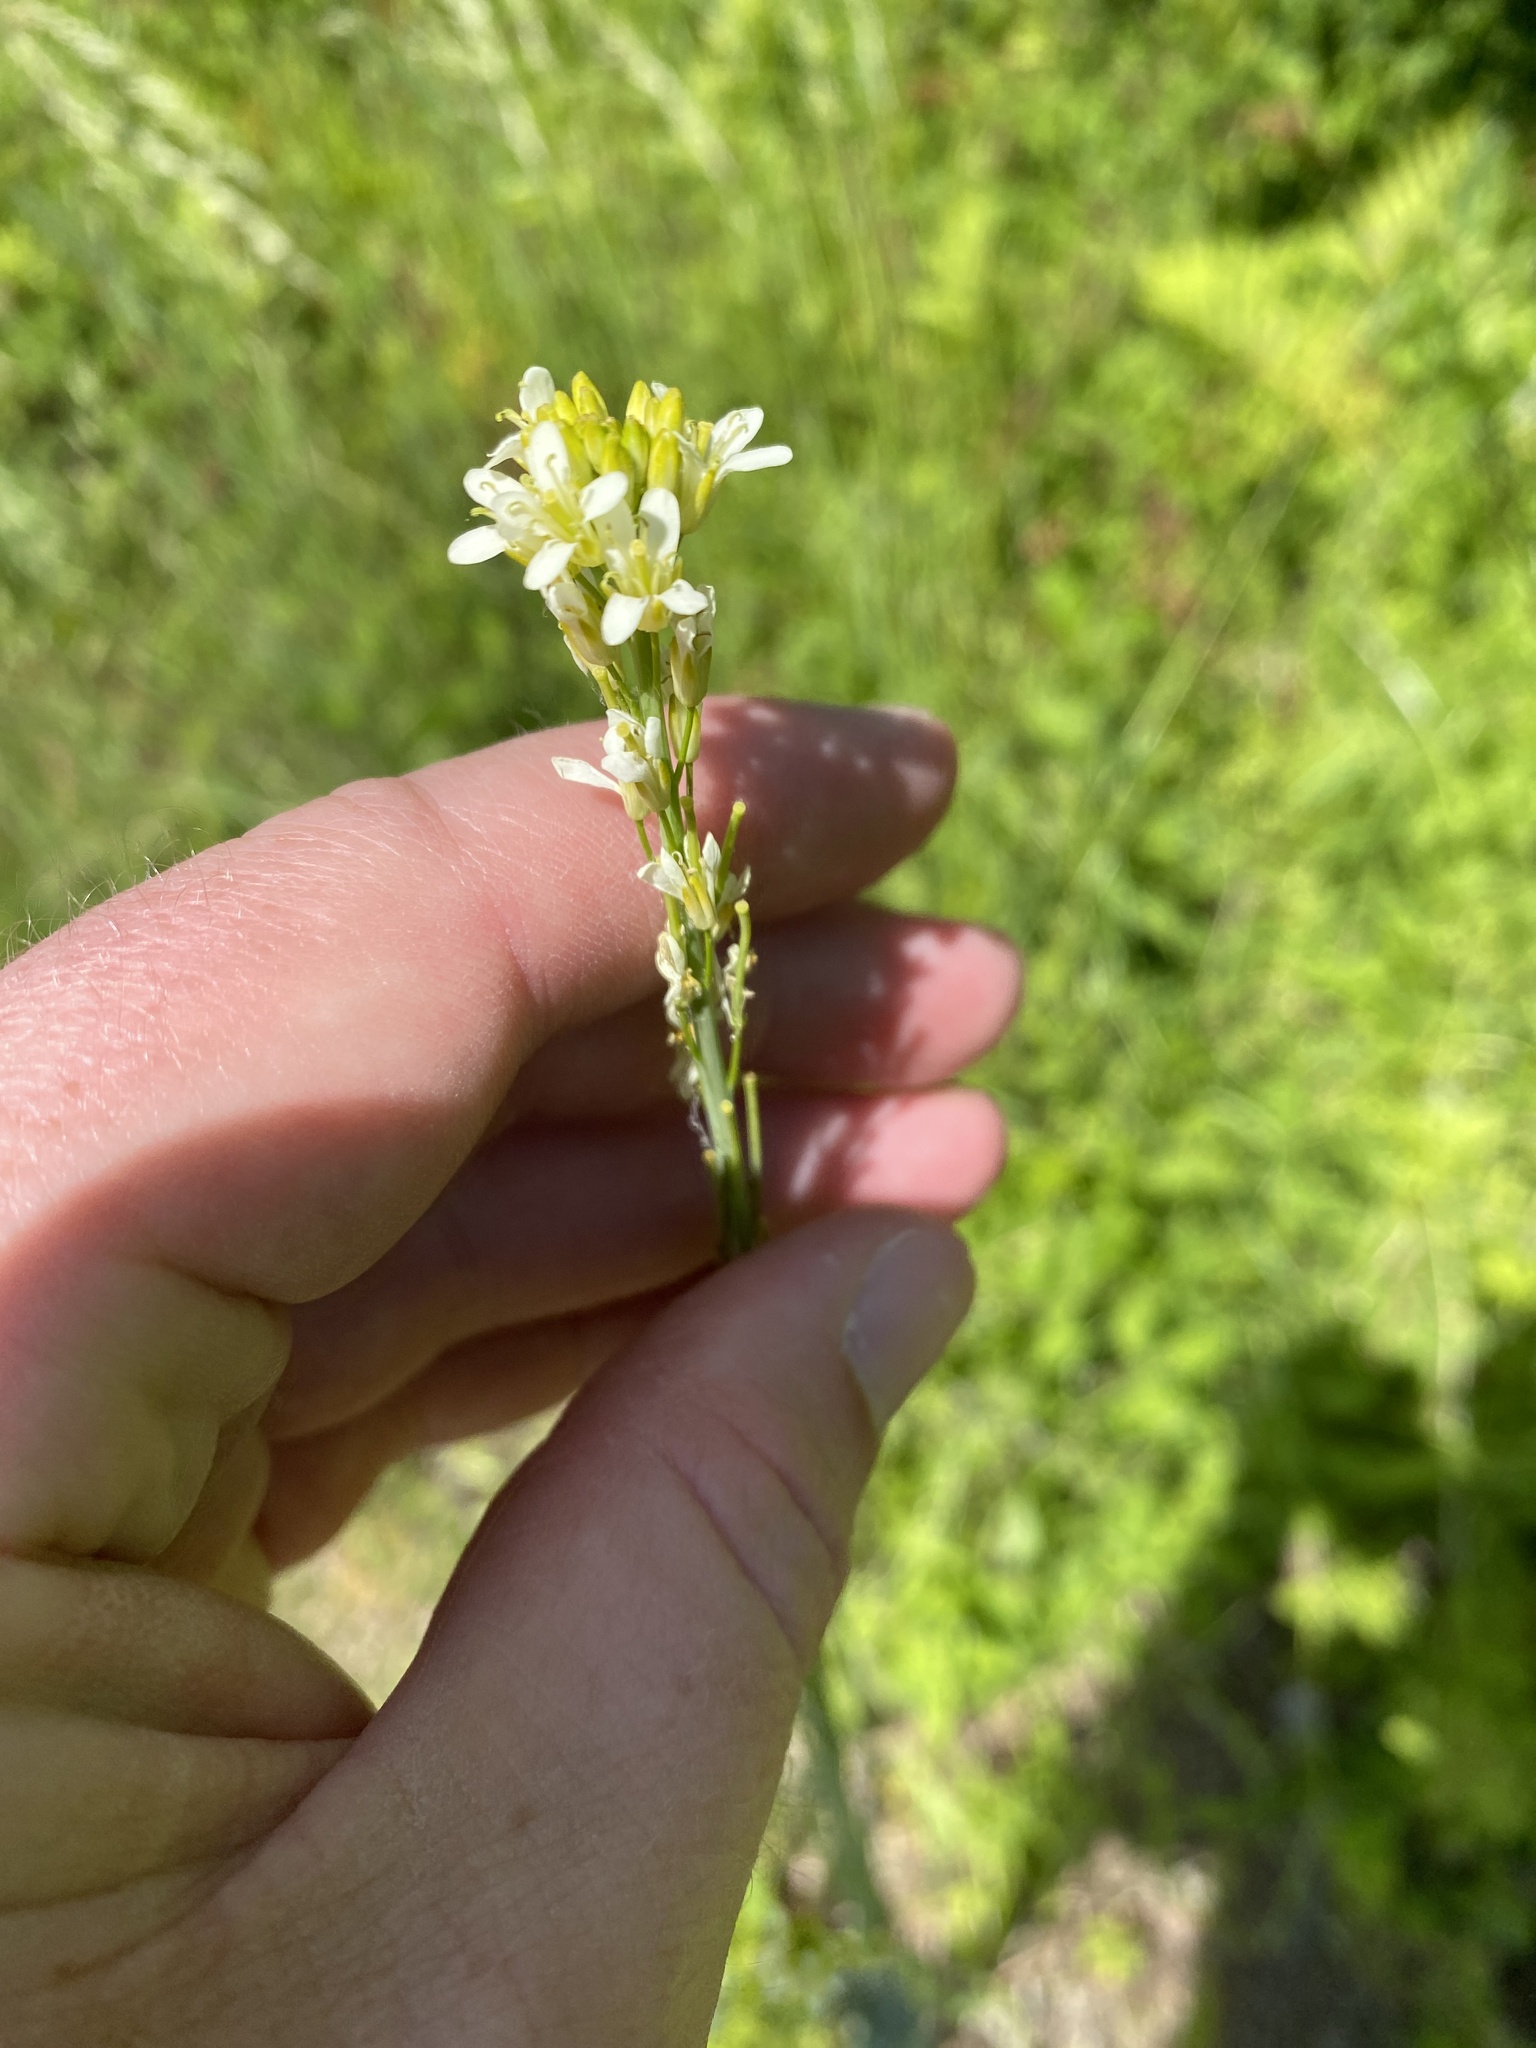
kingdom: Plantae
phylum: Tracheophyta
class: Magnoliopsida
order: Brassicales
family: Brassicaceae
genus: Turritis
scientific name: Turritis glabra
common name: Tower rockcress
